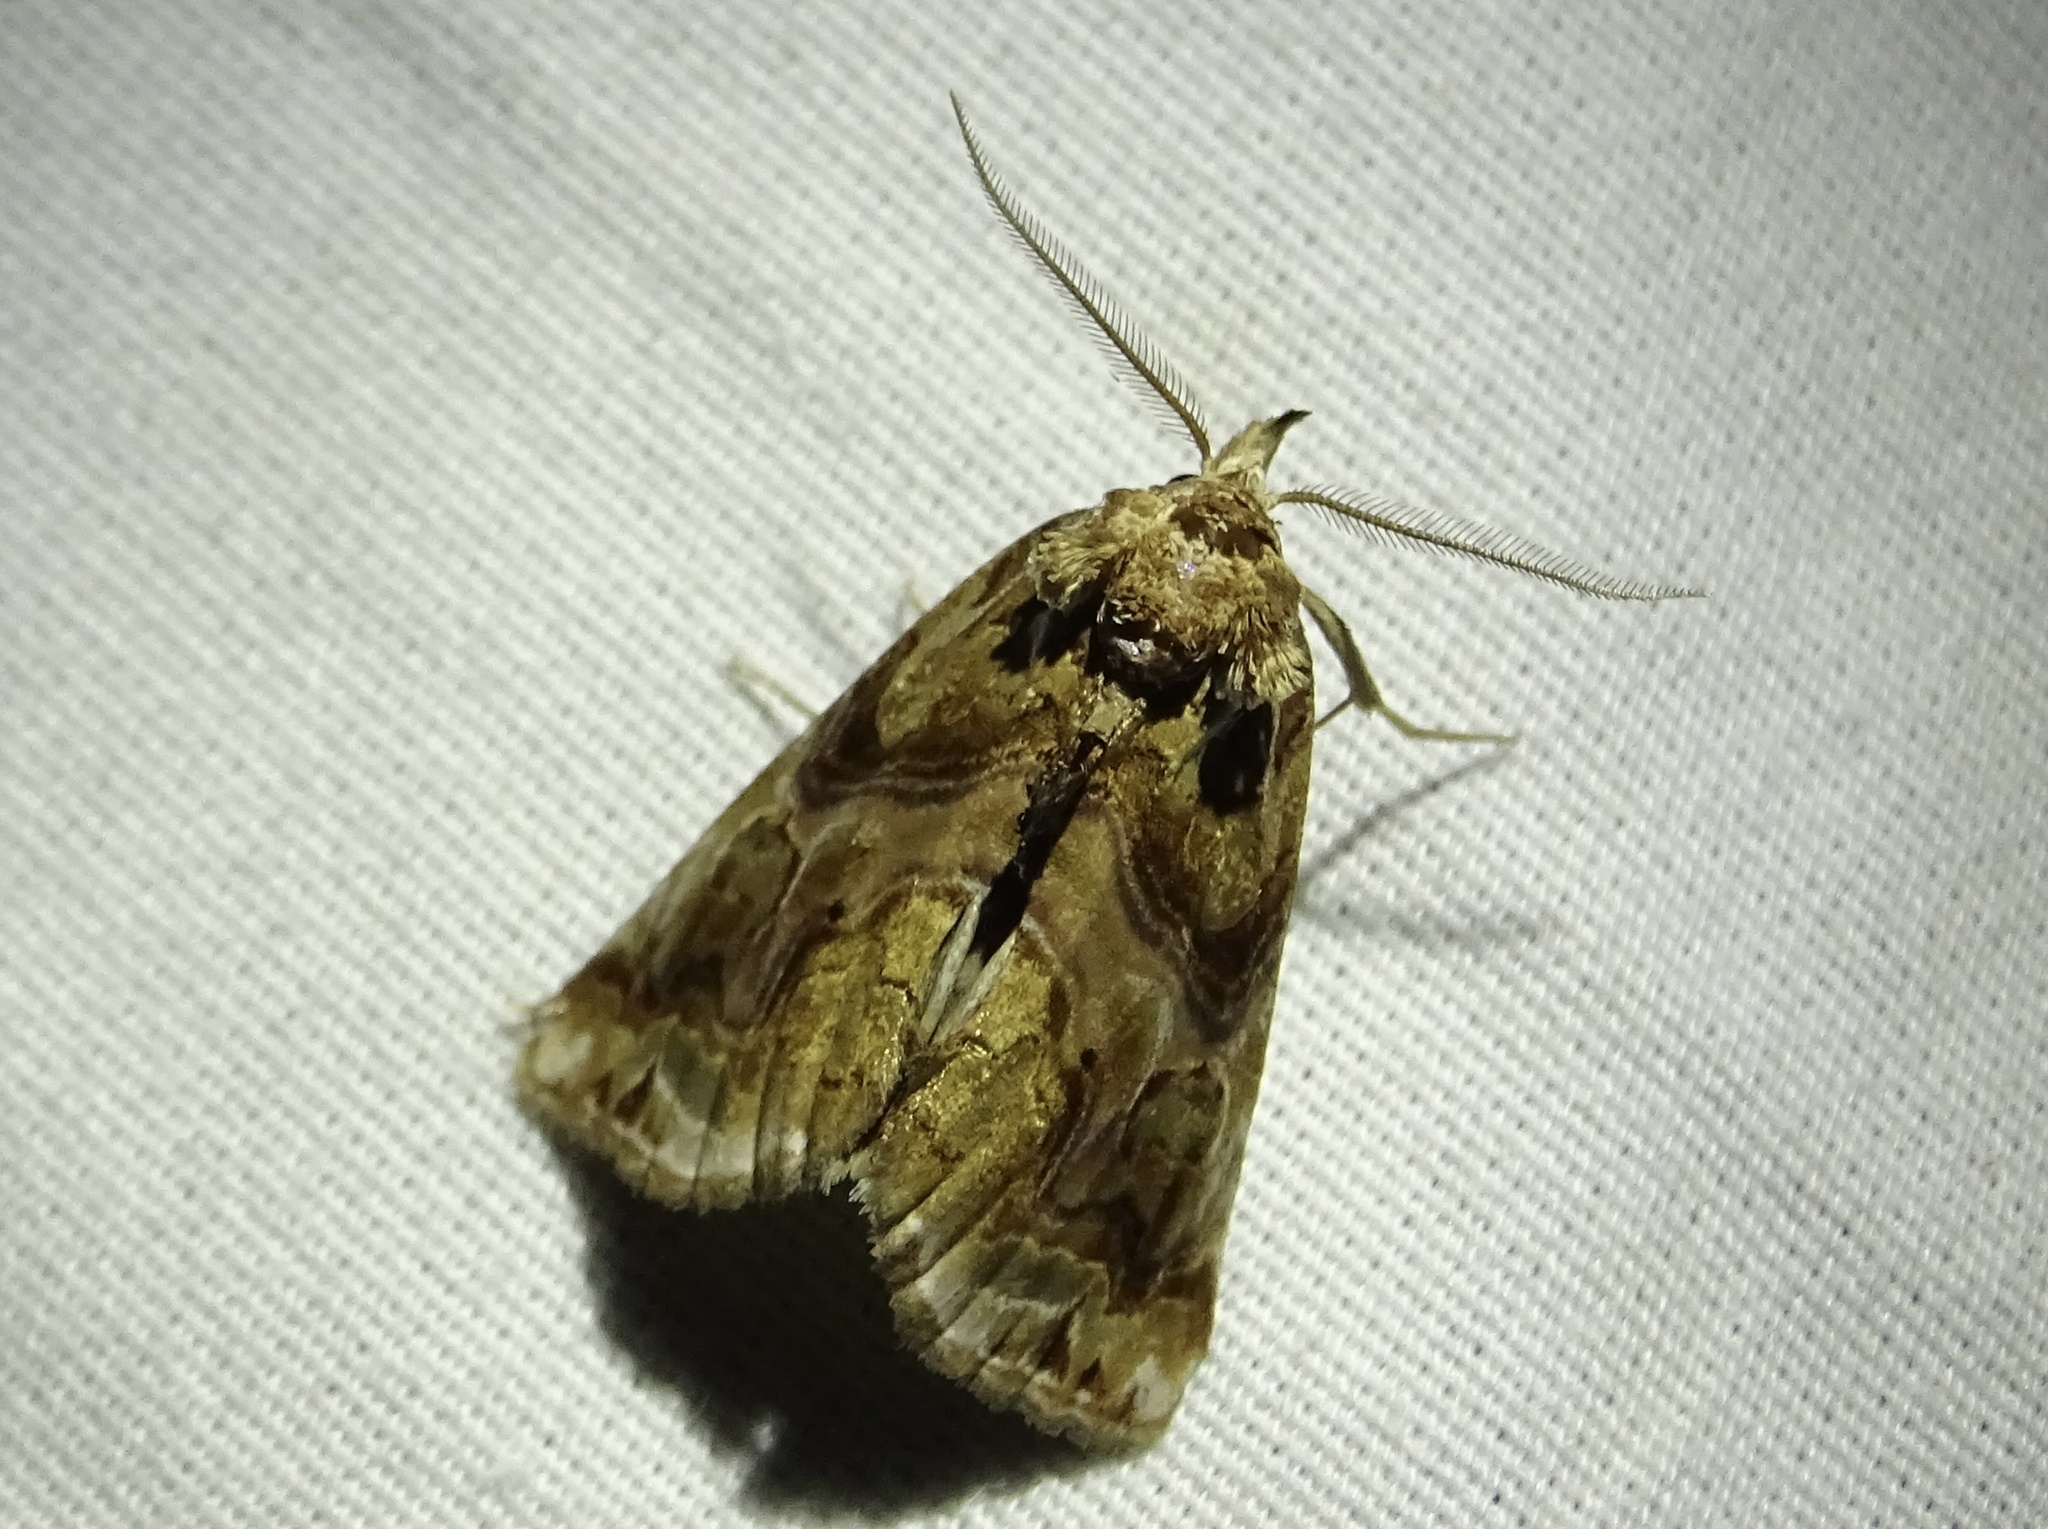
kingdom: Animalia
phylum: Arthropoda
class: Insecta
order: Lepidoptera
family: Erebidae
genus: Plusiodonta
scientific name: Plusiodonta compressipalpis
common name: Moonseed moth
